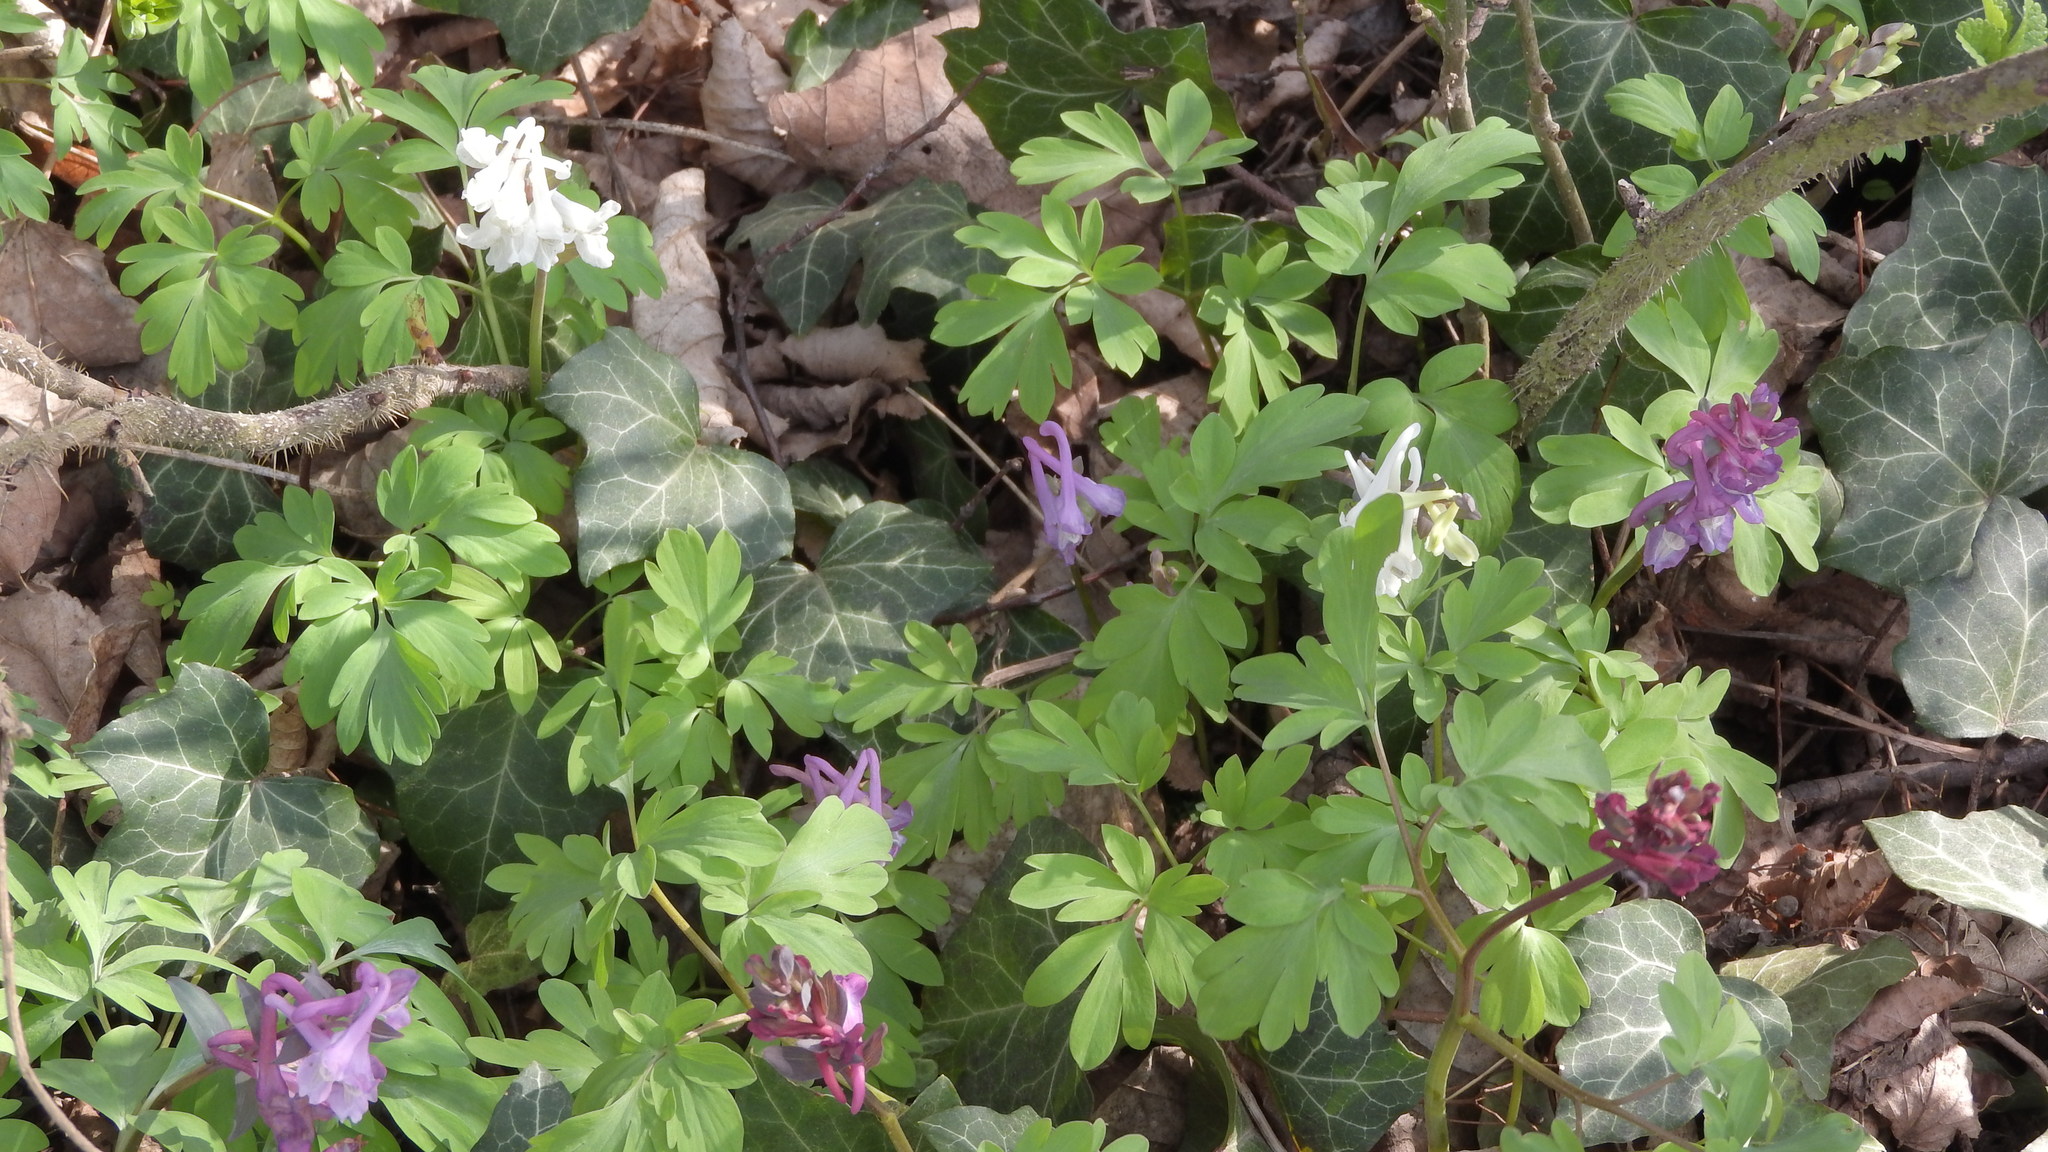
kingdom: Plantae
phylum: Tracheophyta
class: Magnoliopsida
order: Ranunculales
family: Papaveraceae
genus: Corydalis
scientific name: Corydalis cava
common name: Hollowroot
